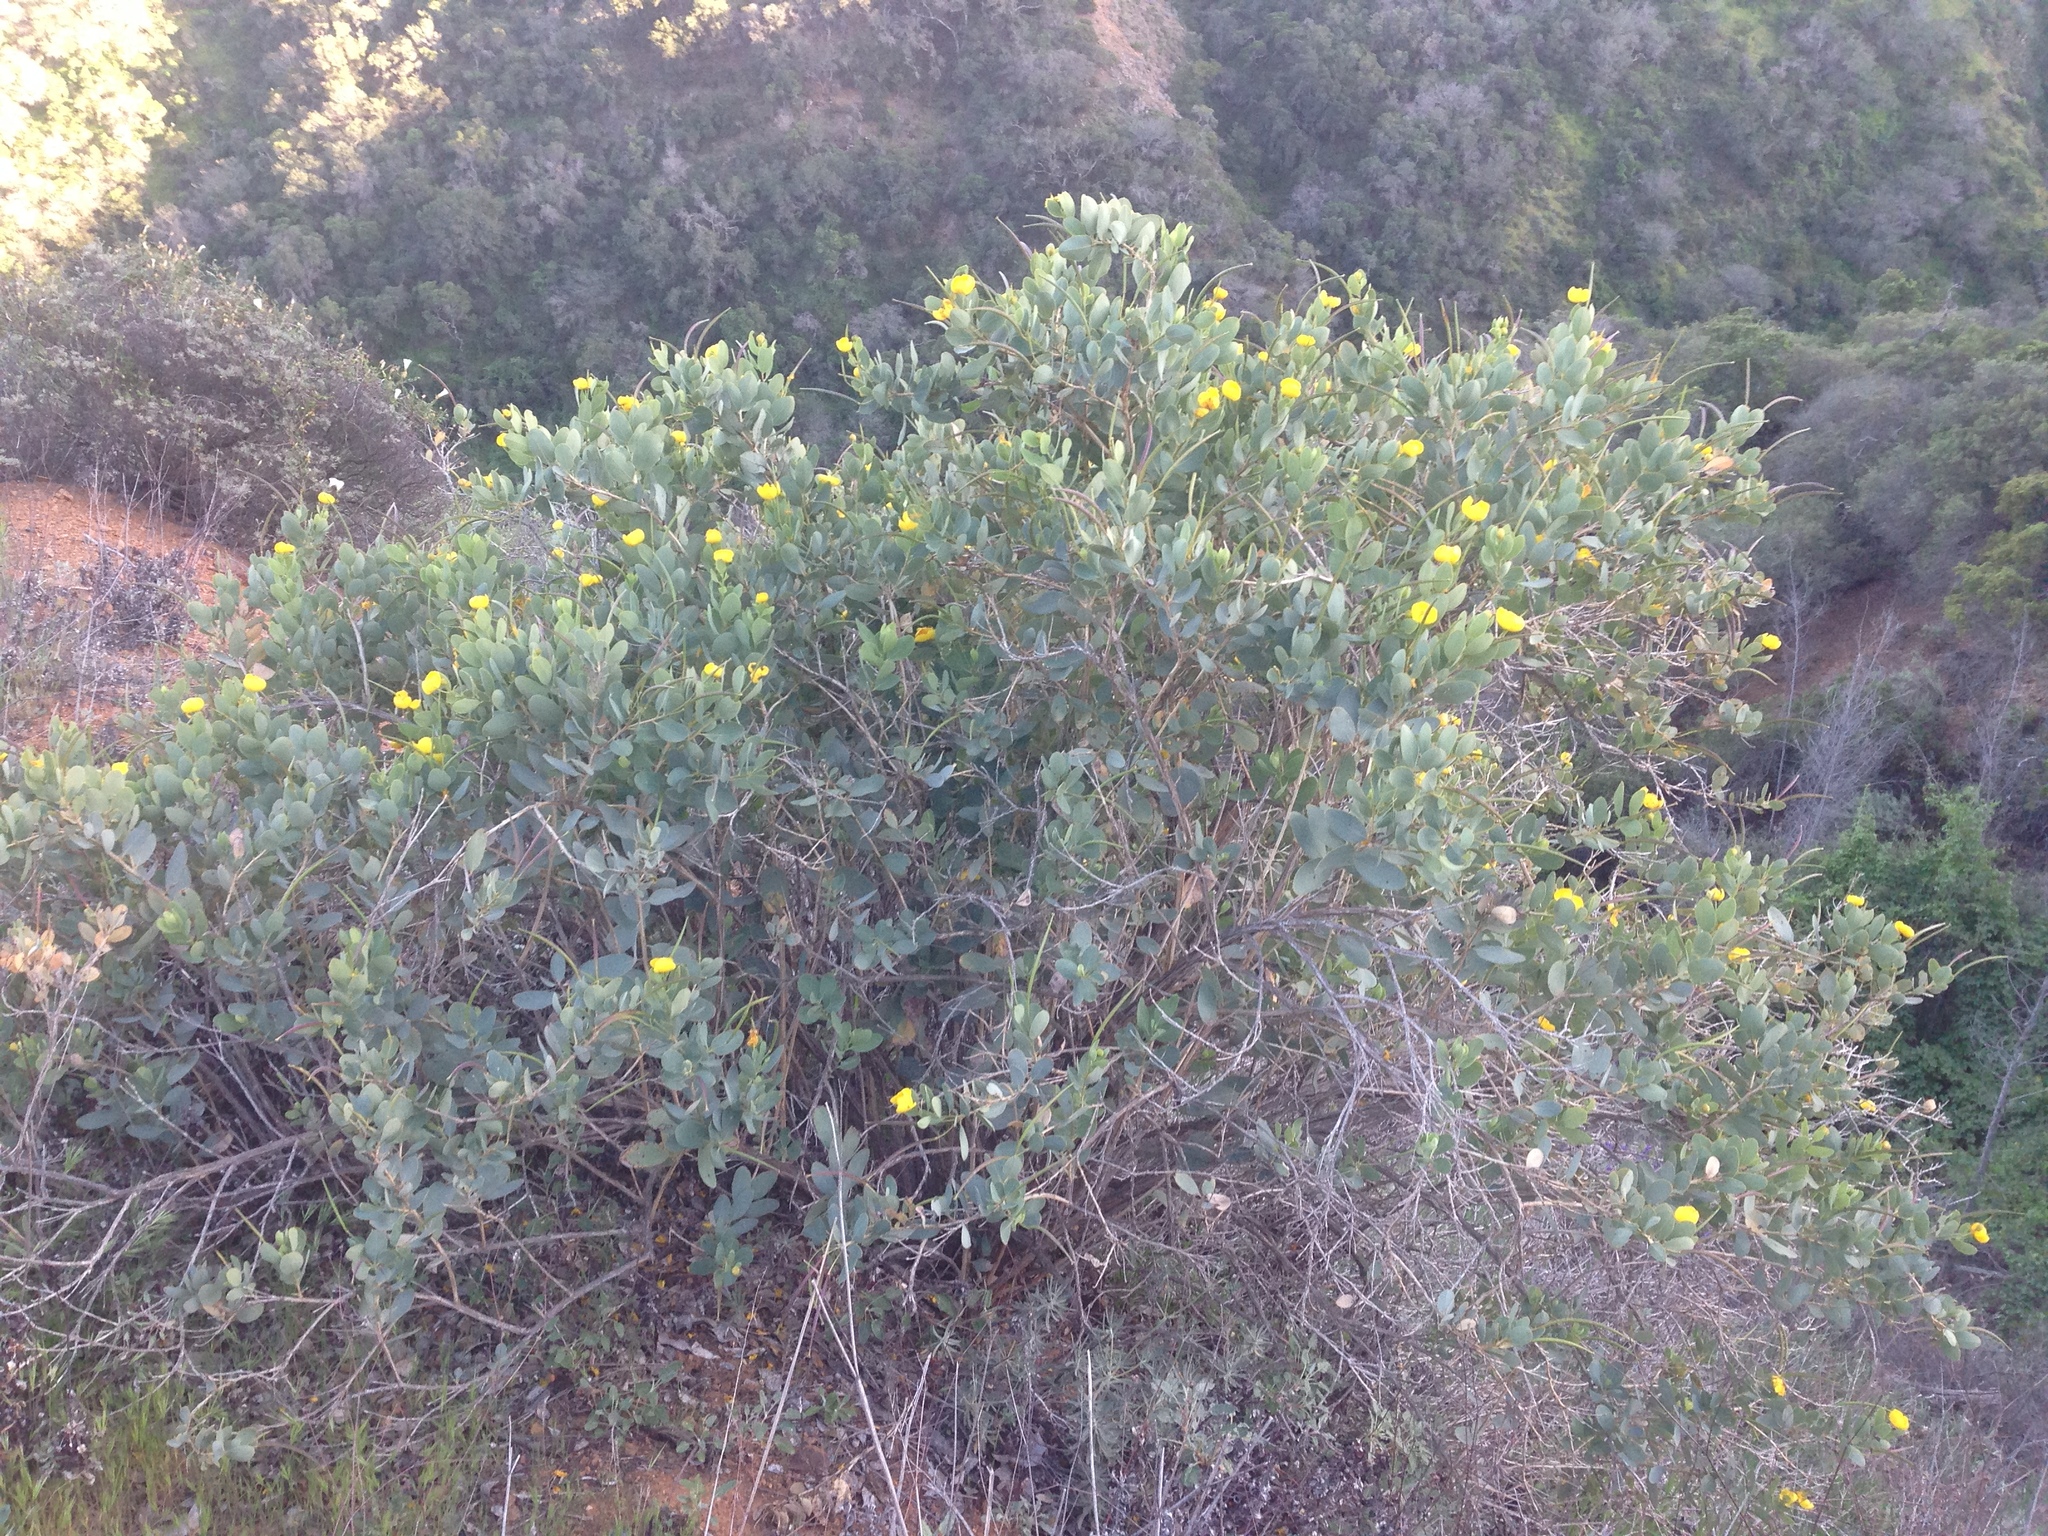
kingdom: Plantae
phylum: Tracheophyta
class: Magnoliopsida
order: Ranunculales
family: Papaveraceae
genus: Dendromecon
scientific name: Dendromecon harfordii
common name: Island tree-poppy
